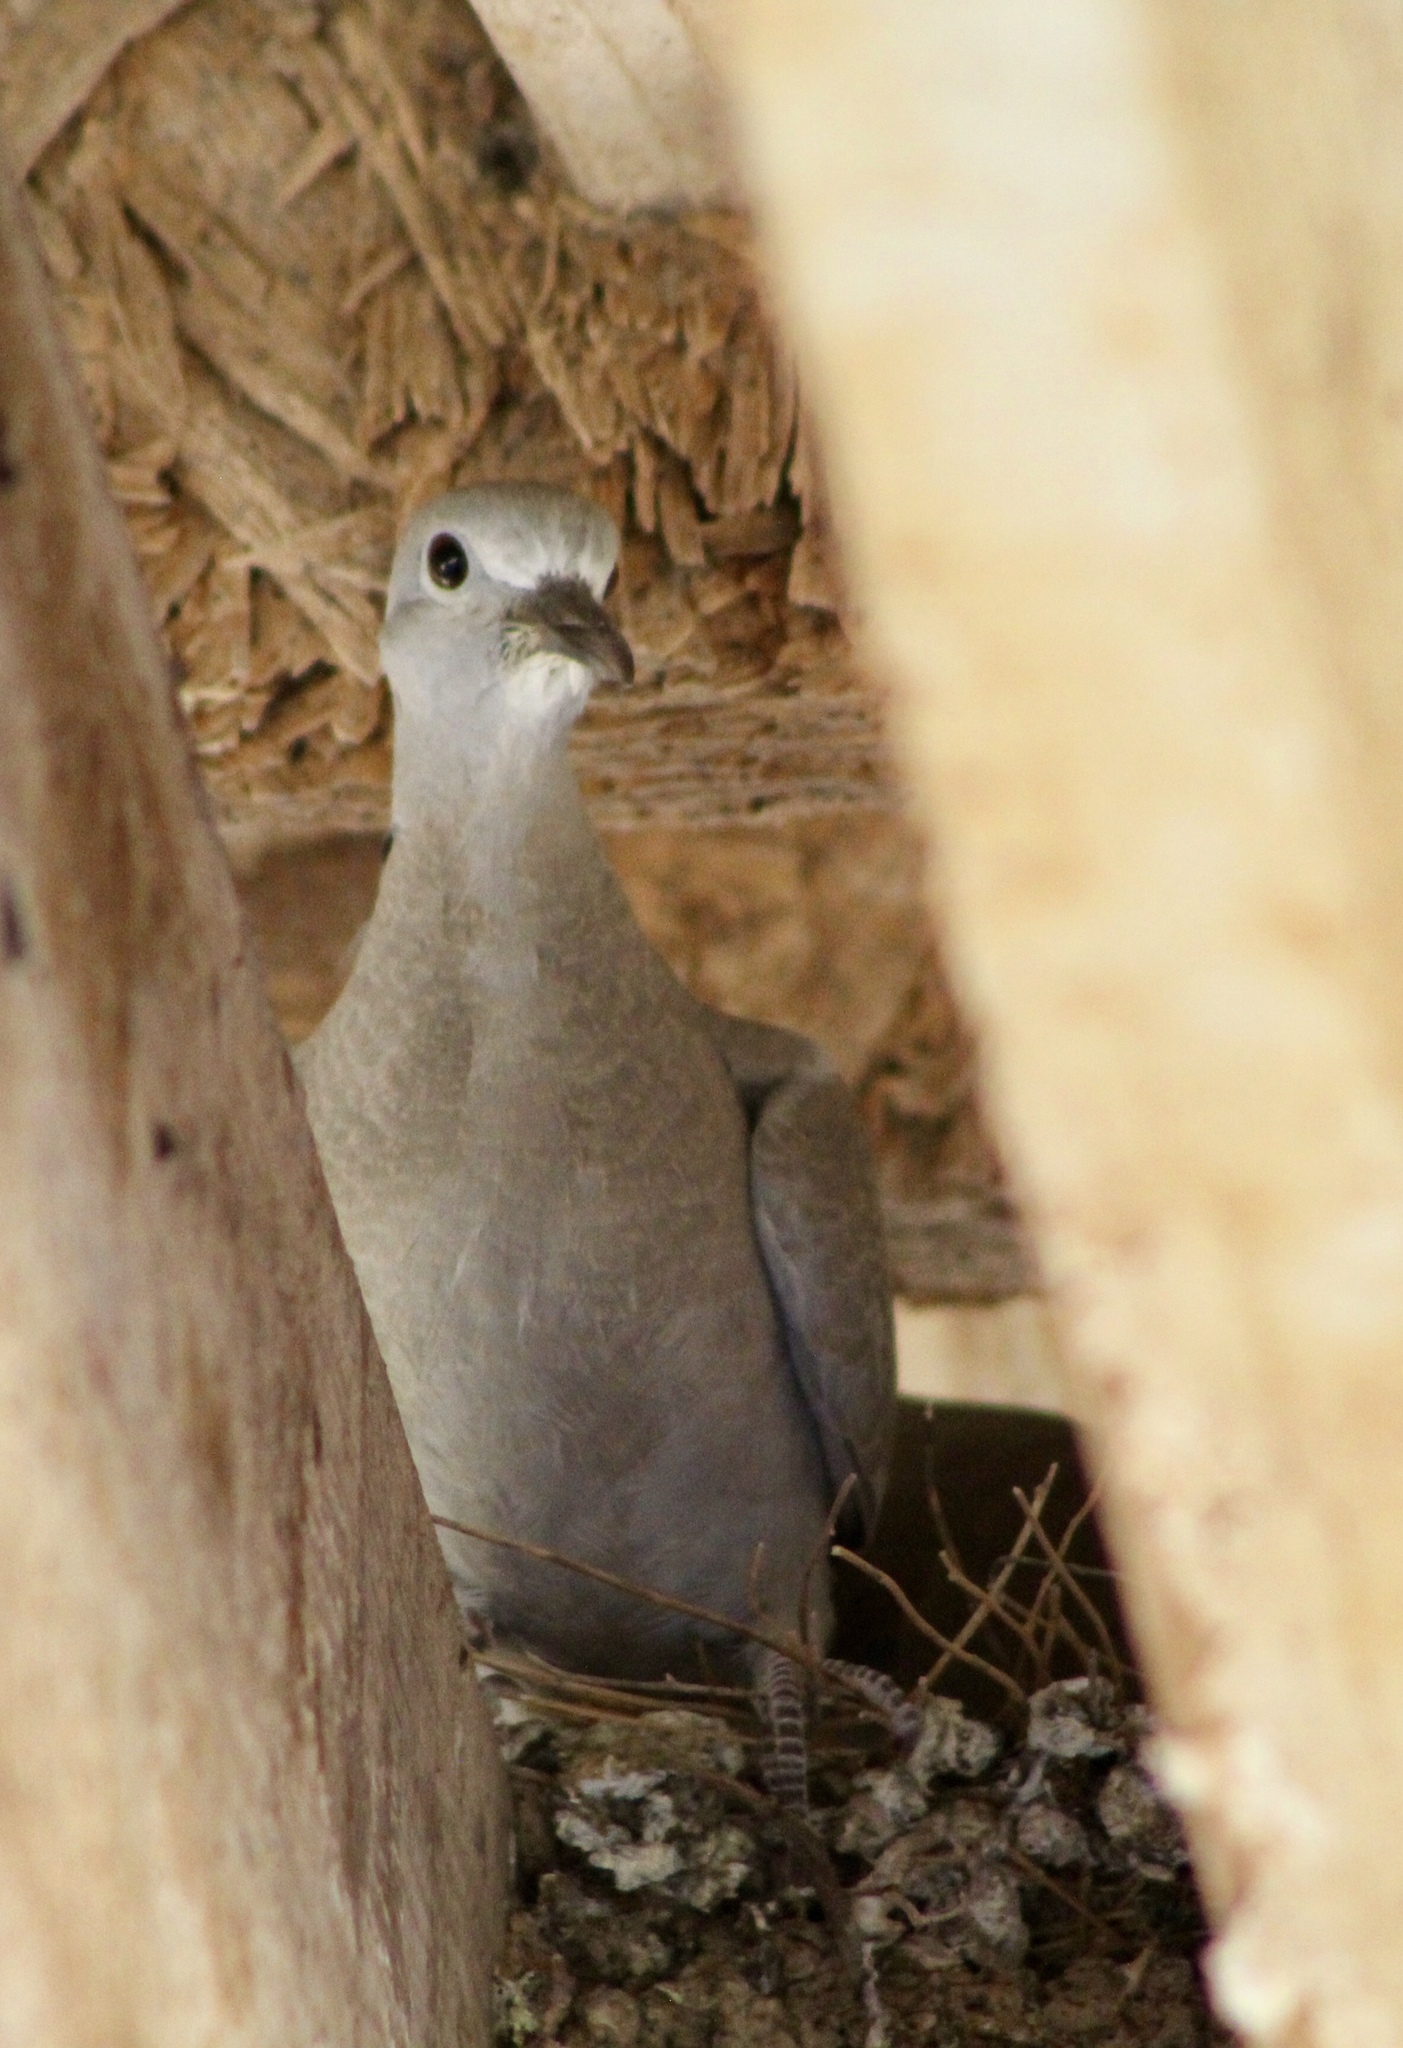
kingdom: Animalia
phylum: Chordata
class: Aves
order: Columbiformes
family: Columbidae
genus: Streptopelia
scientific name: Streptopelia decaocto
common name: Eurasian collared dove
